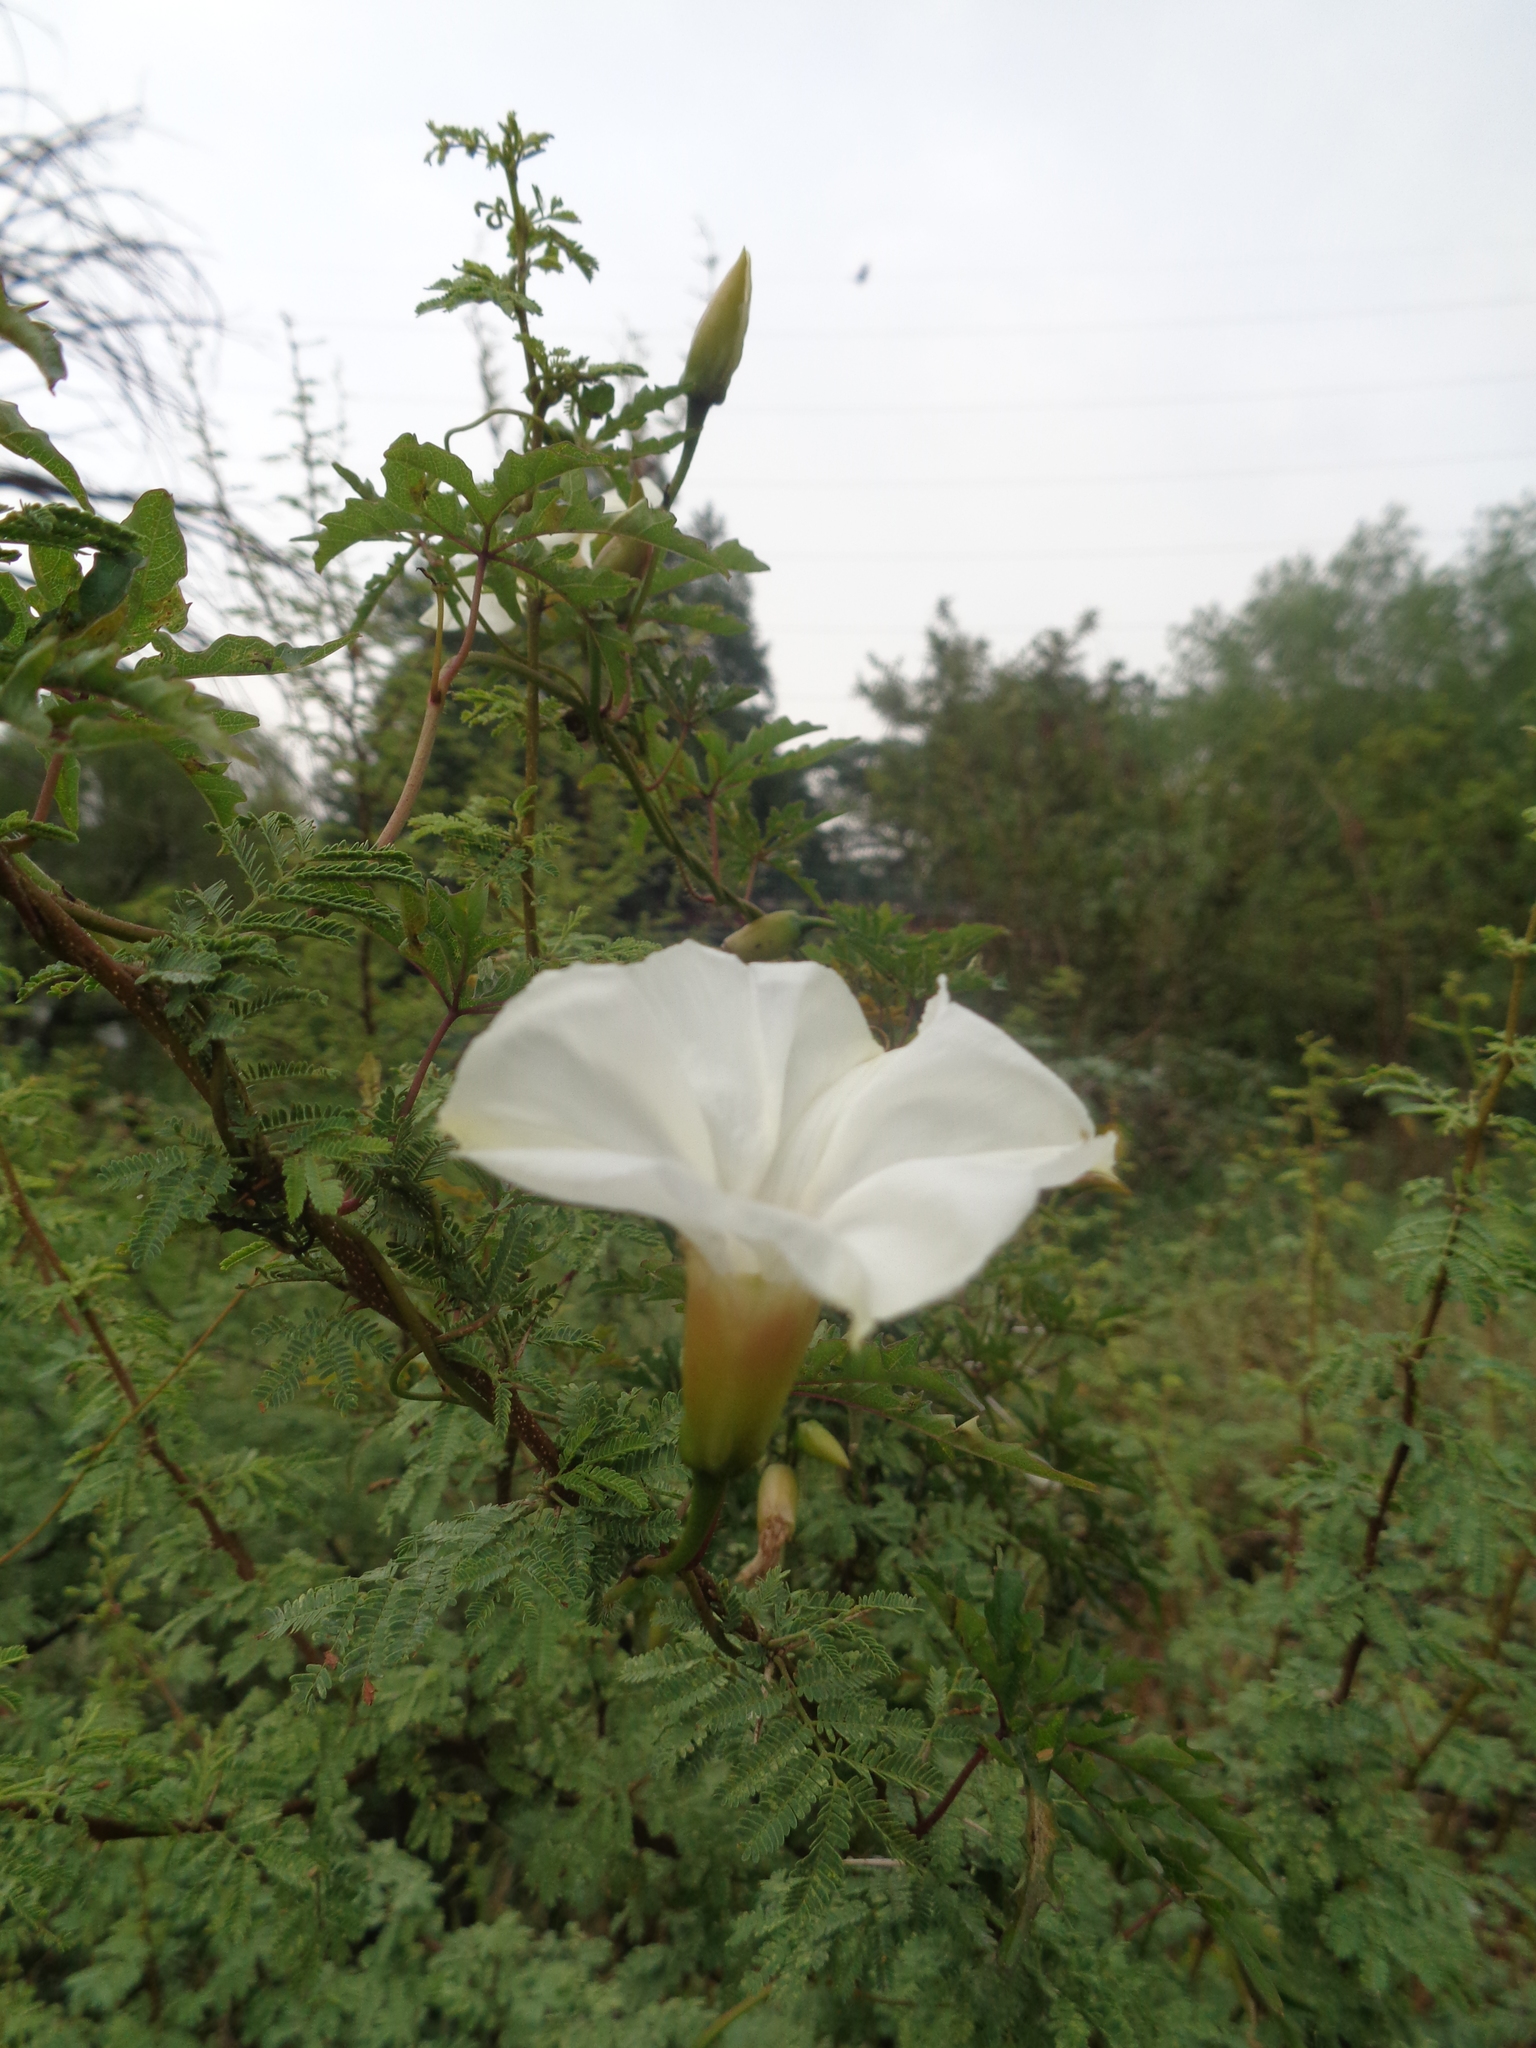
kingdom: Plantae
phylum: Tracheophyta
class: Magnoliopsida
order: Solanales
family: Convolvulaceae
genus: Distimake
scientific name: Distimake dissectus
